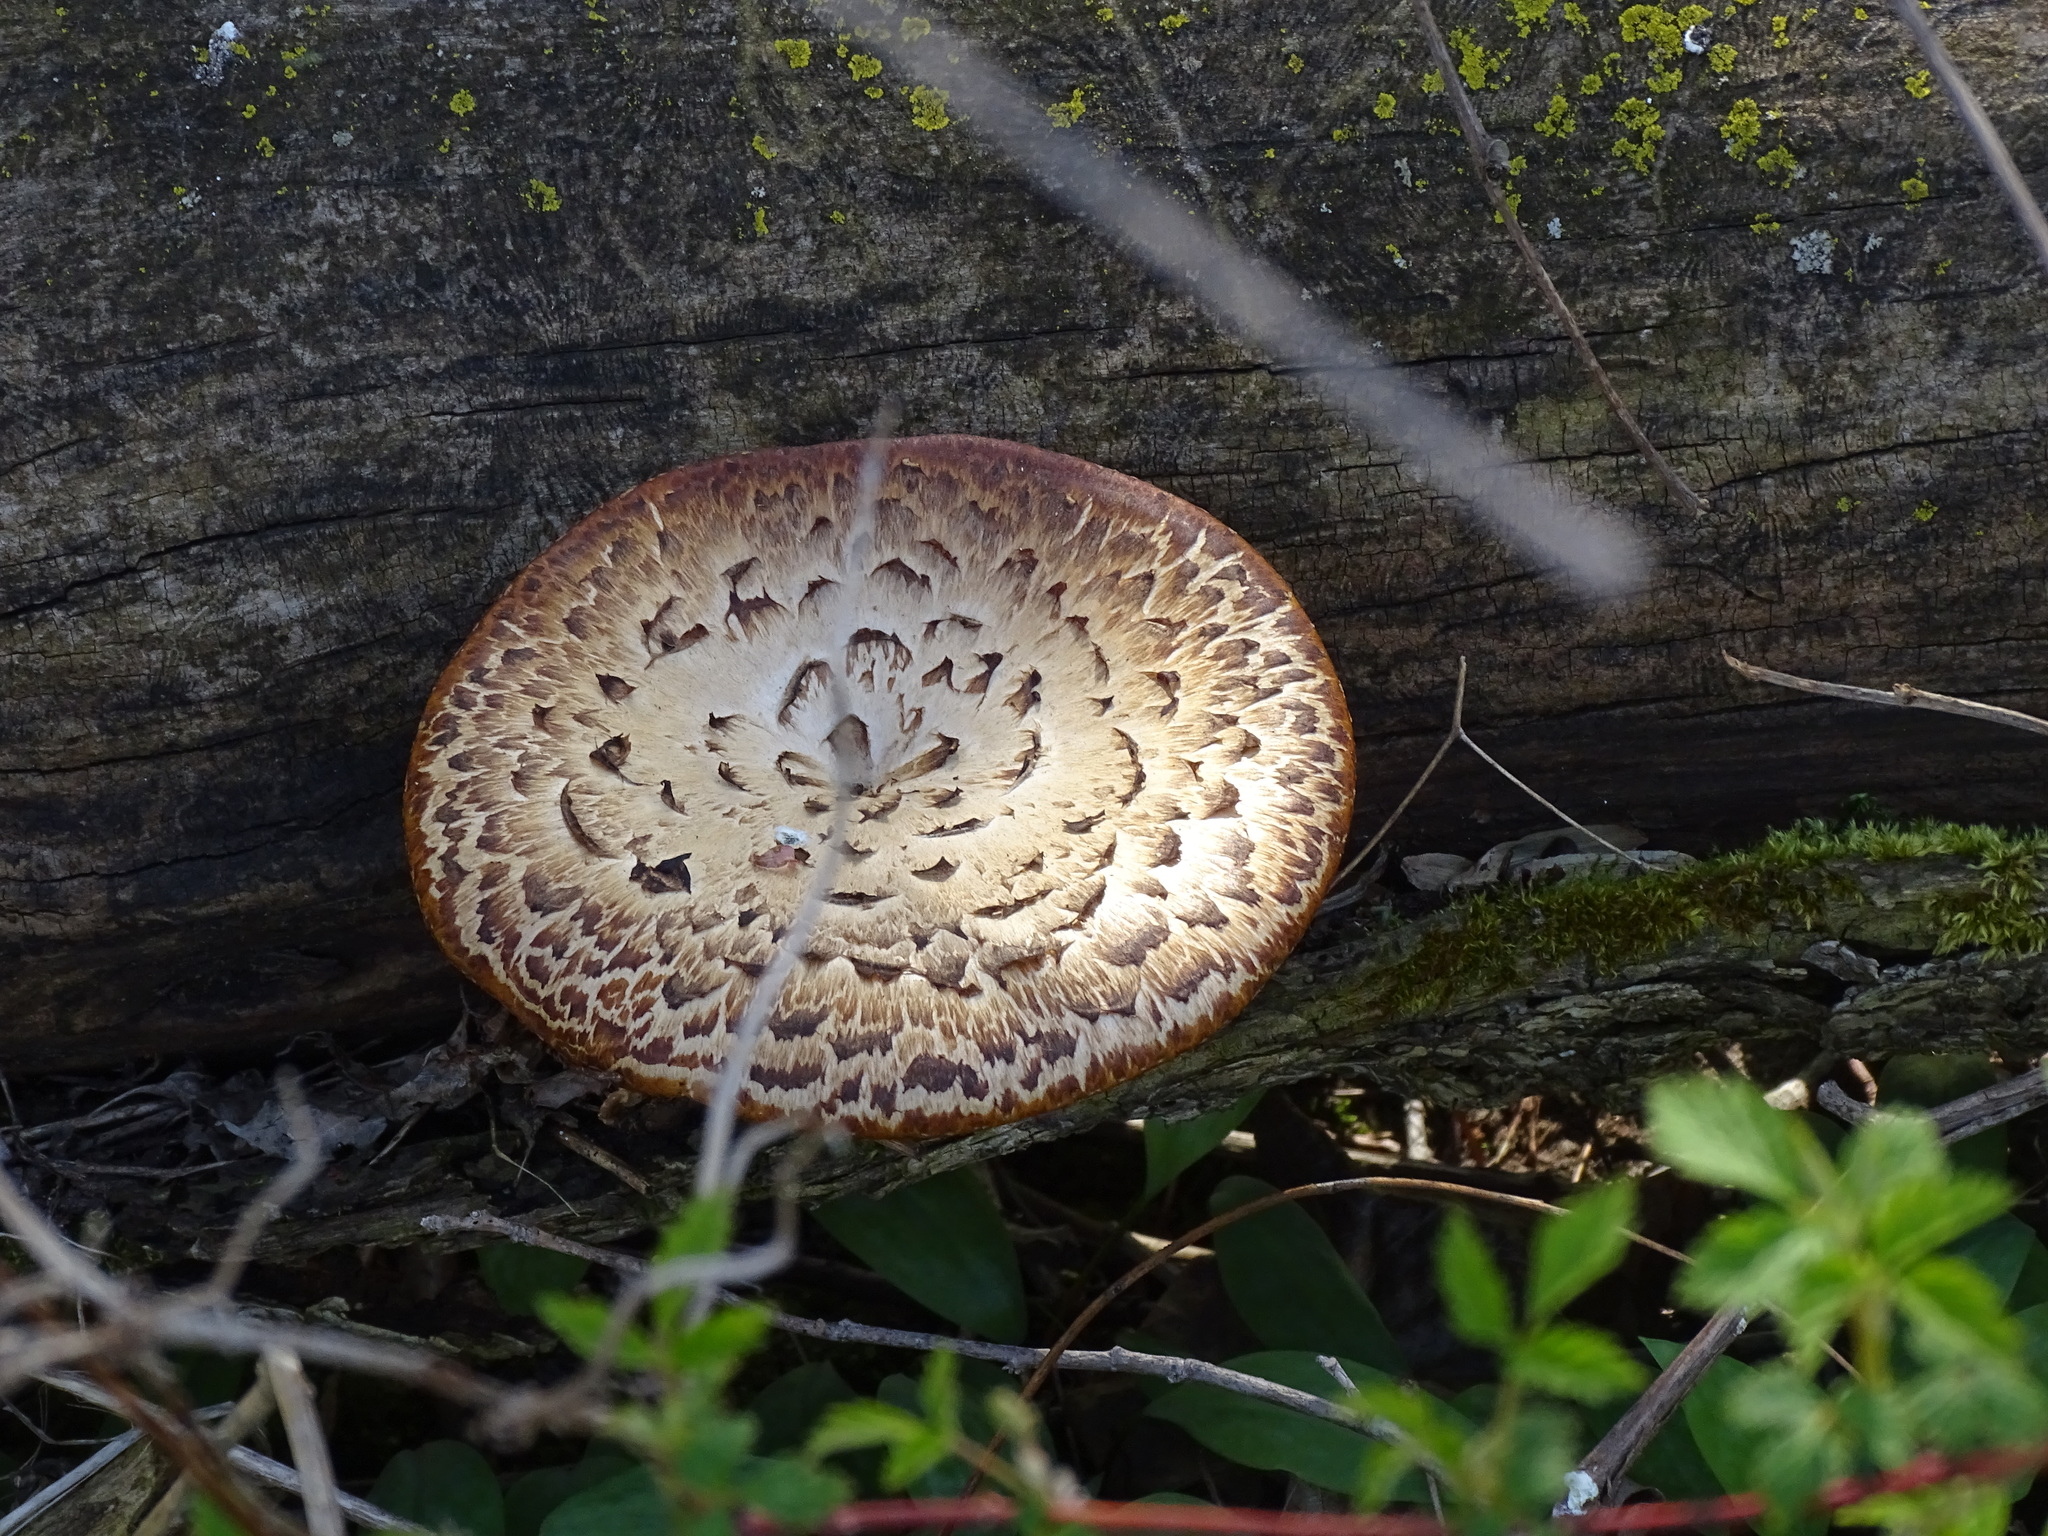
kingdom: Fungi
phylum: Basidiomycota
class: Agaricomycetes
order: Polyporales
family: Polyporaceae
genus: Cerioporus
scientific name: Cerioporus squamosus
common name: Dryad's saddle
